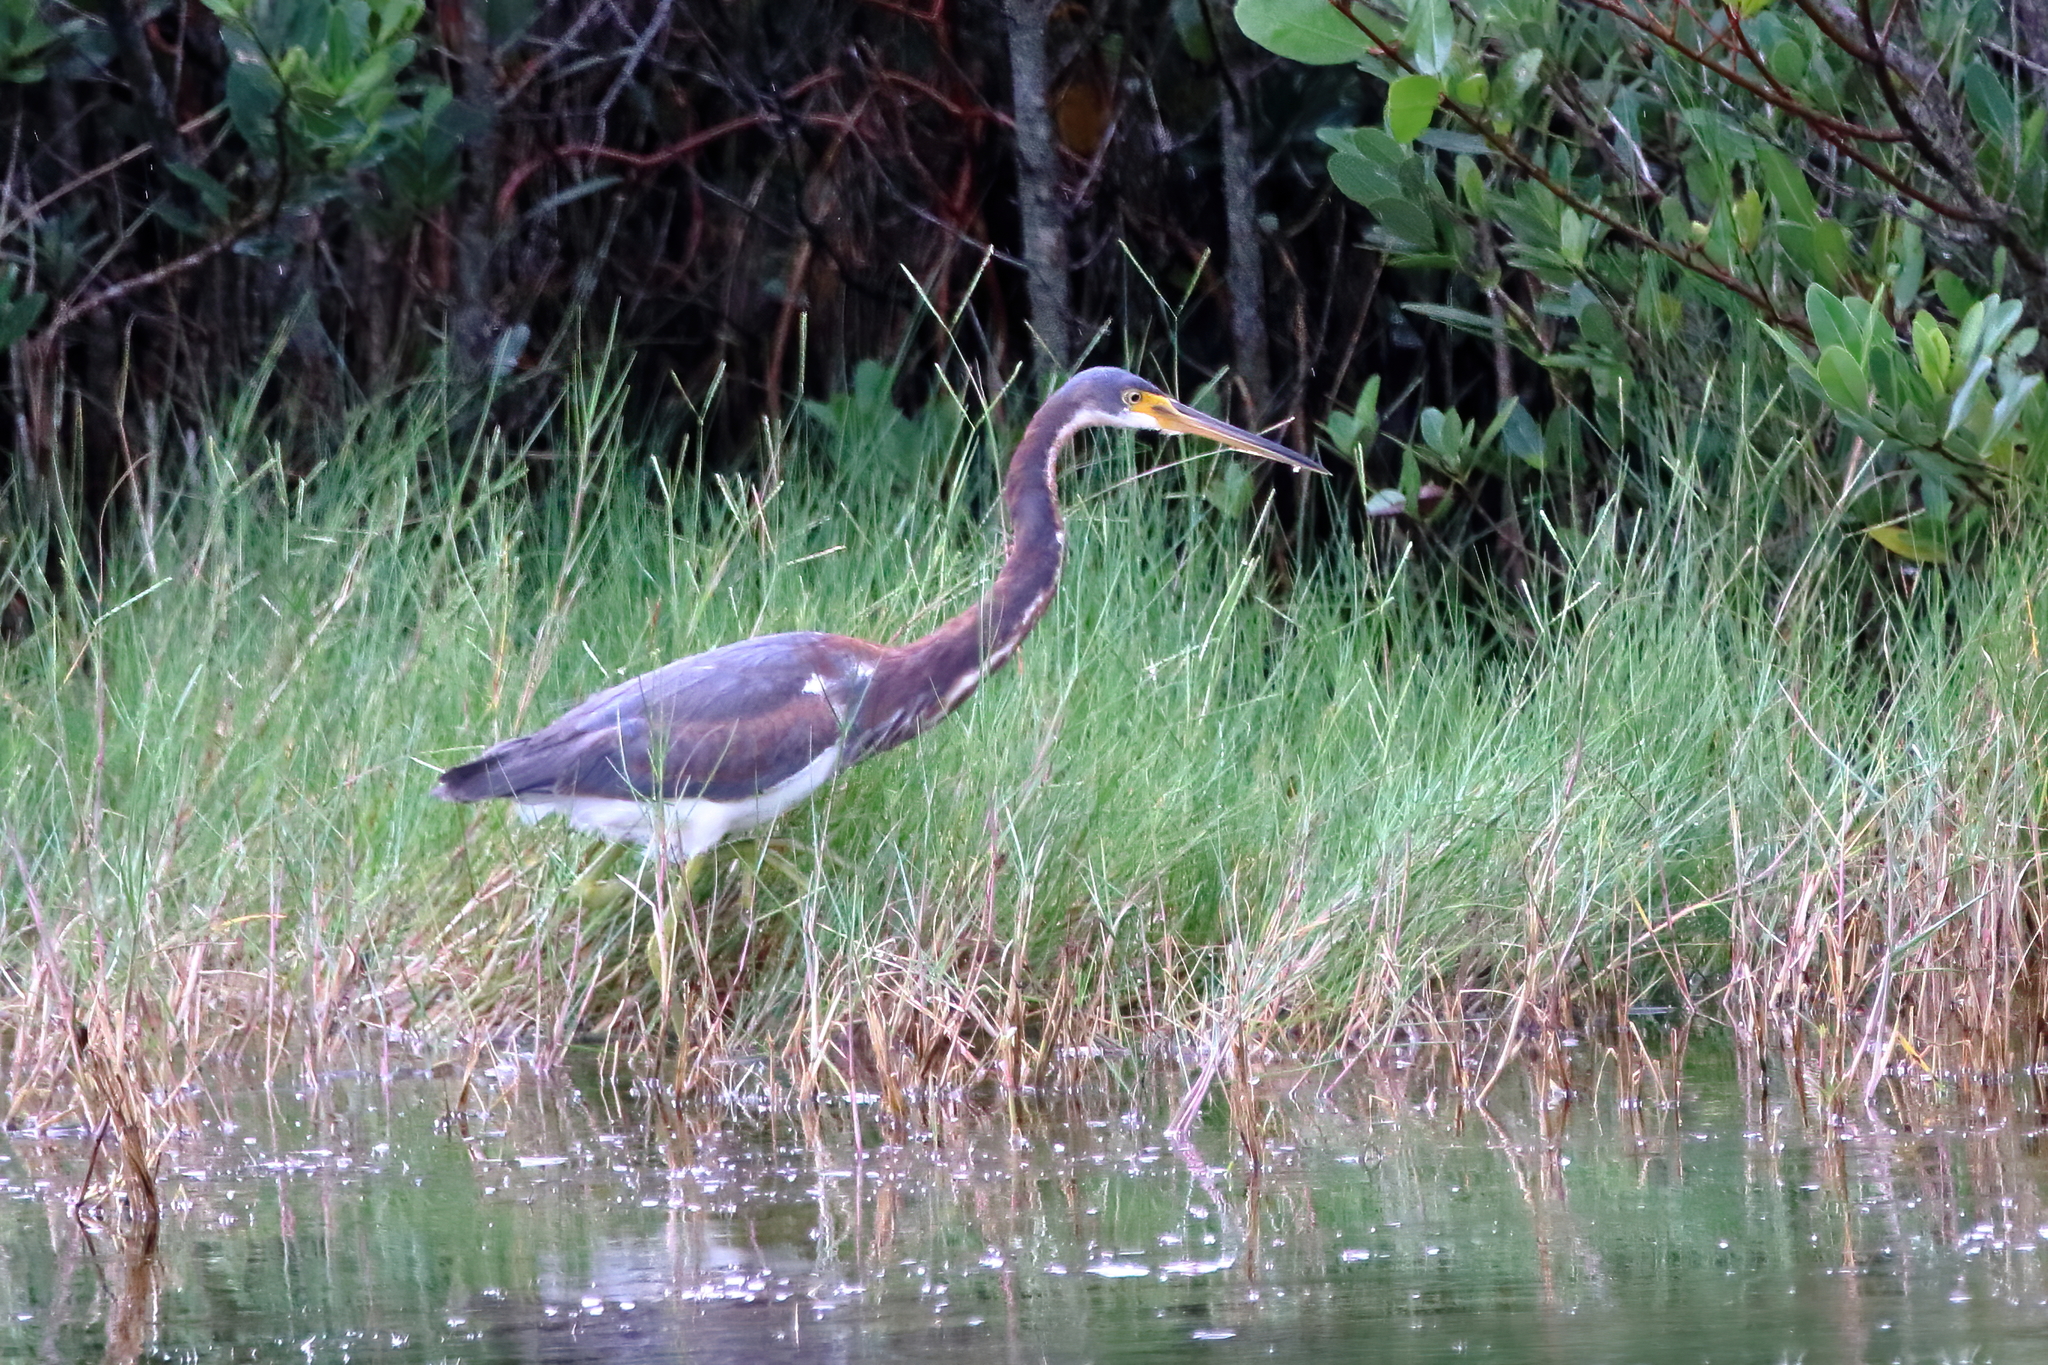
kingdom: Animalia
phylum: Chordata
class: Aves
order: Pelecaniformes
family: Ardeidae
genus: Egretta
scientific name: Egretta tricolor
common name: Tricolored heron
